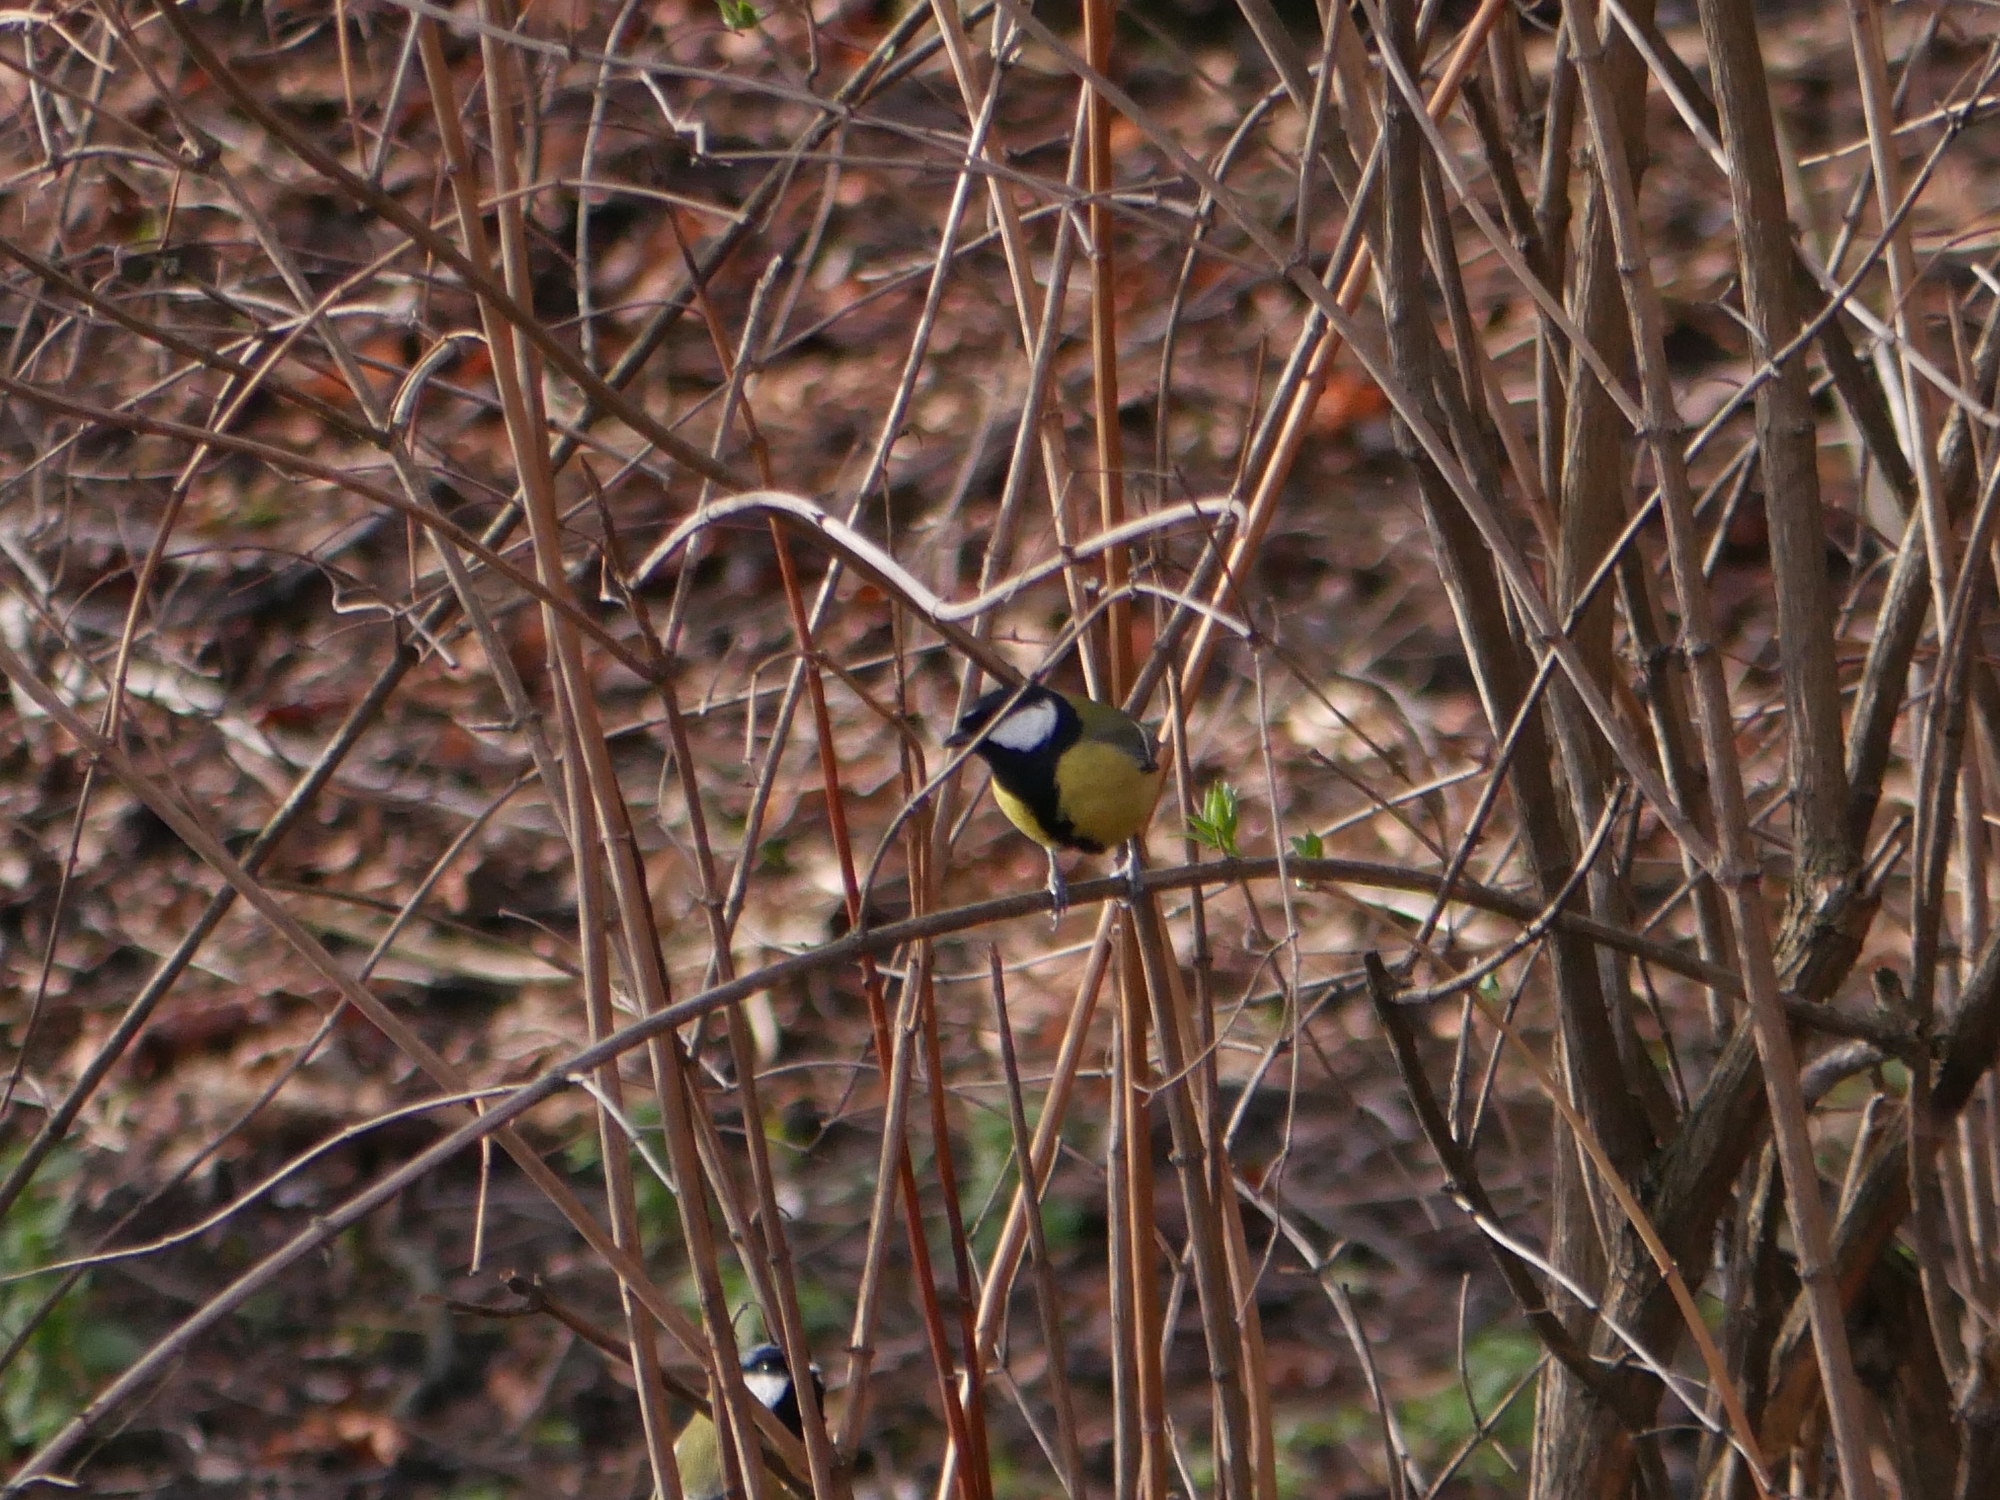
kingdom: Animalia
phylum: Chordata
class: Aves
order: Passeriformes
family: Paridae
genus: Parus
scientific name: Parus major
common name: Great tit
